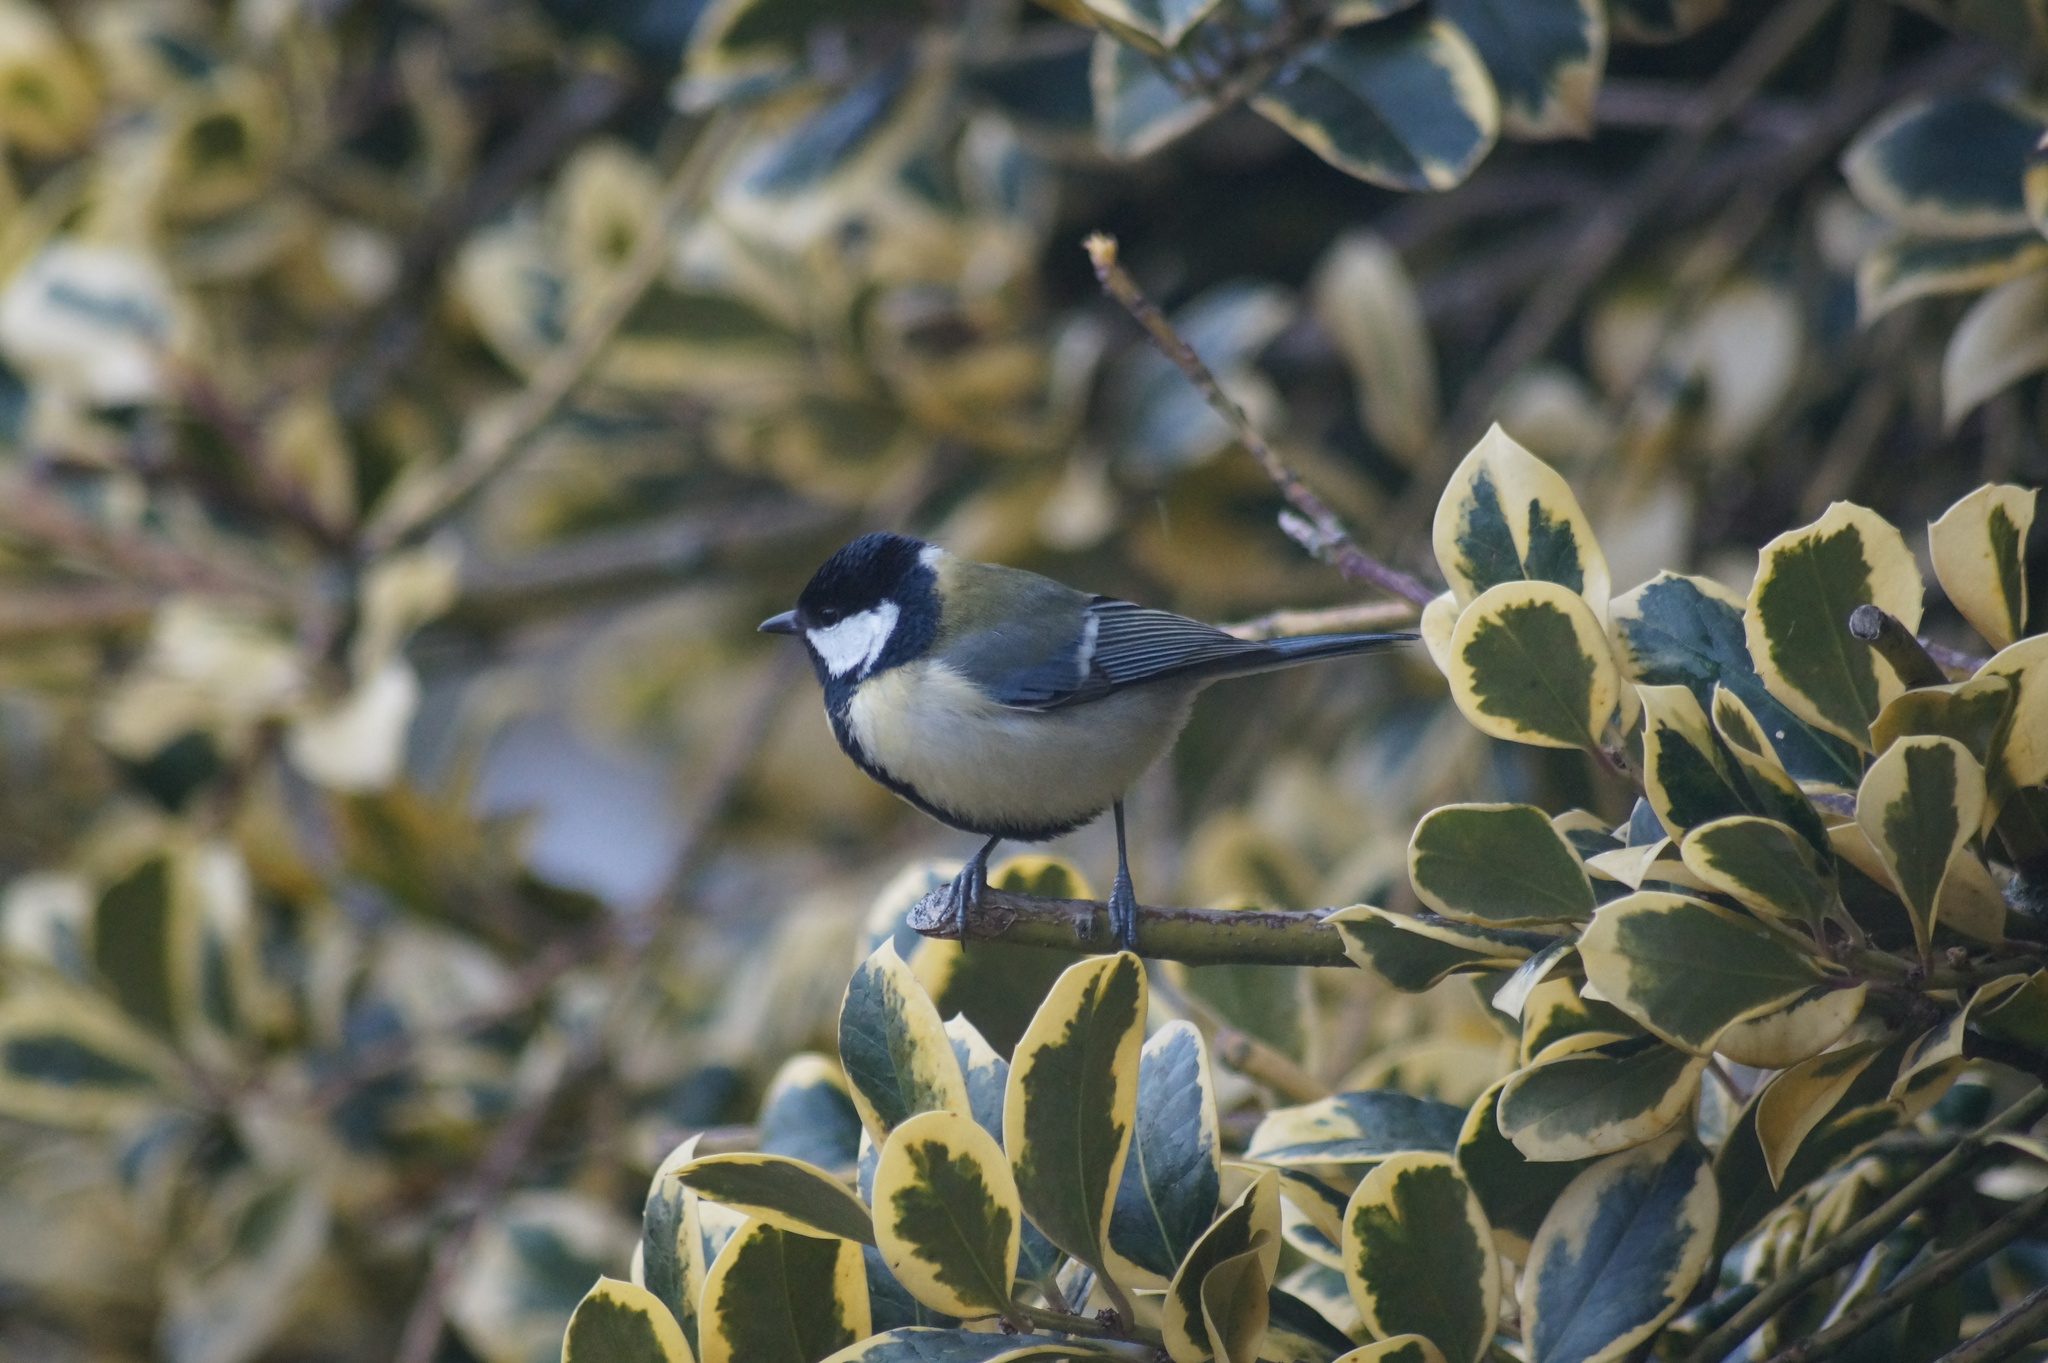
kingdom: Animalia
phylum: Chordata
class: Aves
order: Passeriformes
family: Paridae
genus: Parus
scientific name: Parus major
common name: Great tit
